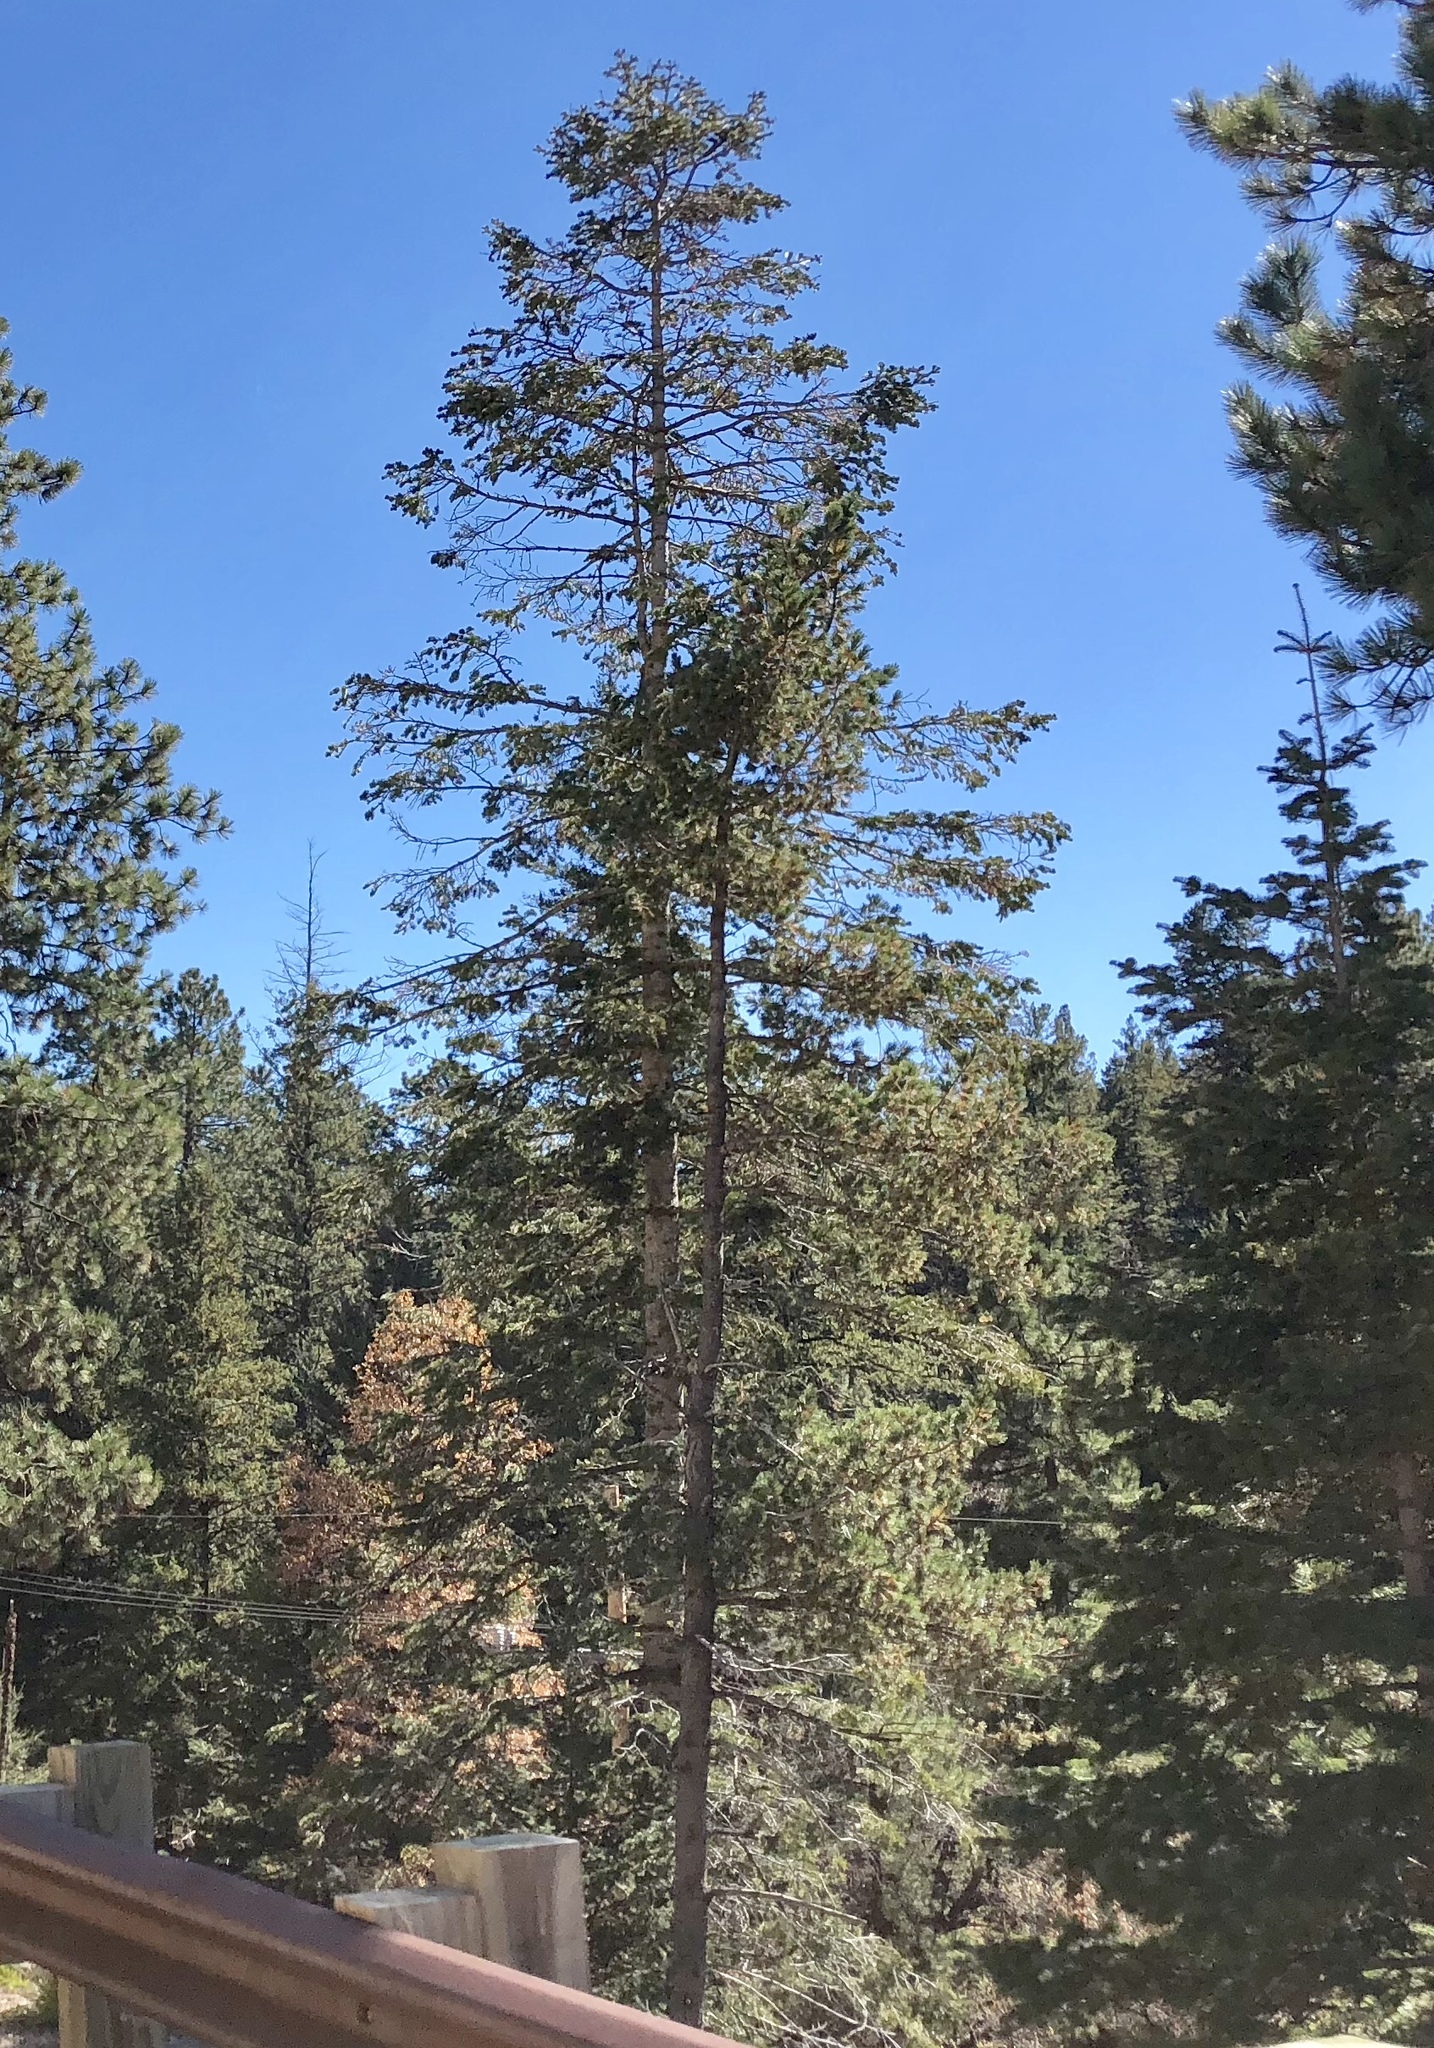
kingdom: Plantae
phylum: Tracheophyta
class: Pinopsida
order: Pinales
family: Pinaceae
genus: Pinus
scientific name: Pinus ponderosa
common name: Western yellow-pine
